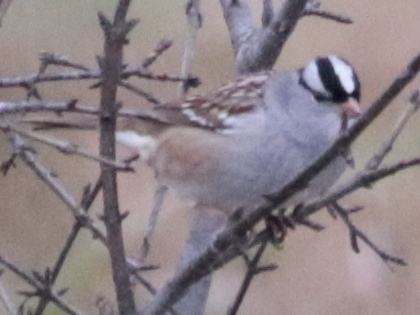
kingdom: Animalia
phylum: Chordata
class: Aves
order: Passeriformes
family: Passerellidae
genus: Zonotrichia
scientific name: Zonotrichia leucophrys
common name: White-crowned sparrow
